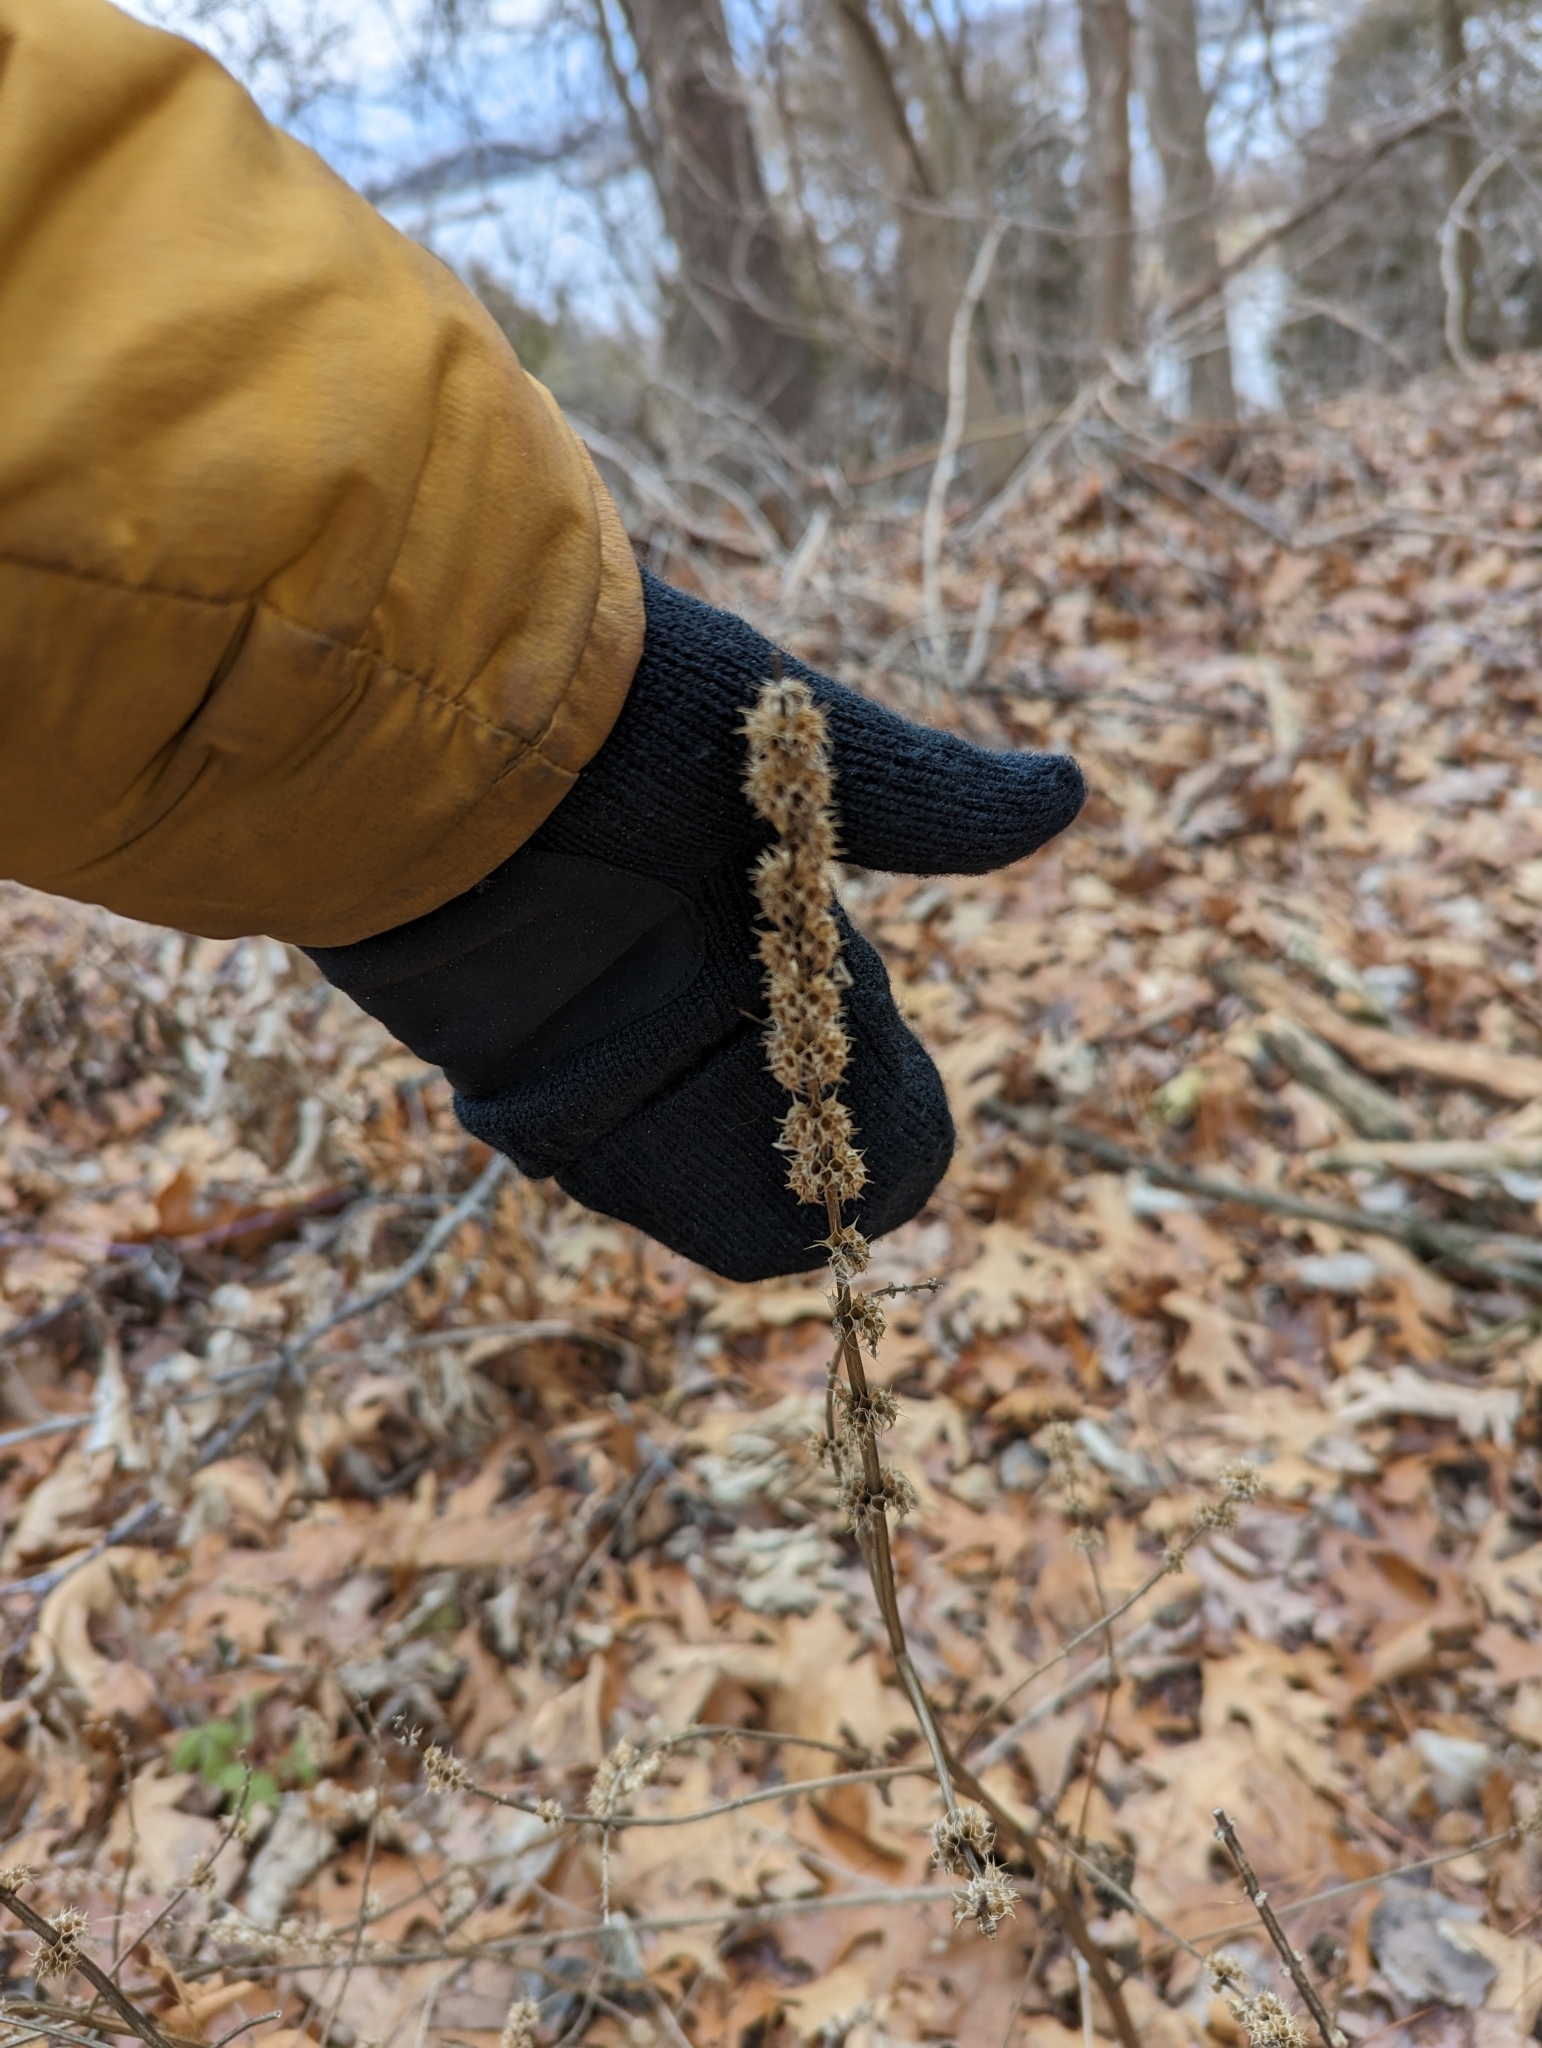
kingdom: Plantae
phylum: Tracheophyta
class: Magnoliopsida
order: Lamiales
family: Lamiaceae
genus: Leonurus
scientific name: Leonurus cardiaca
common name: Motherwort
